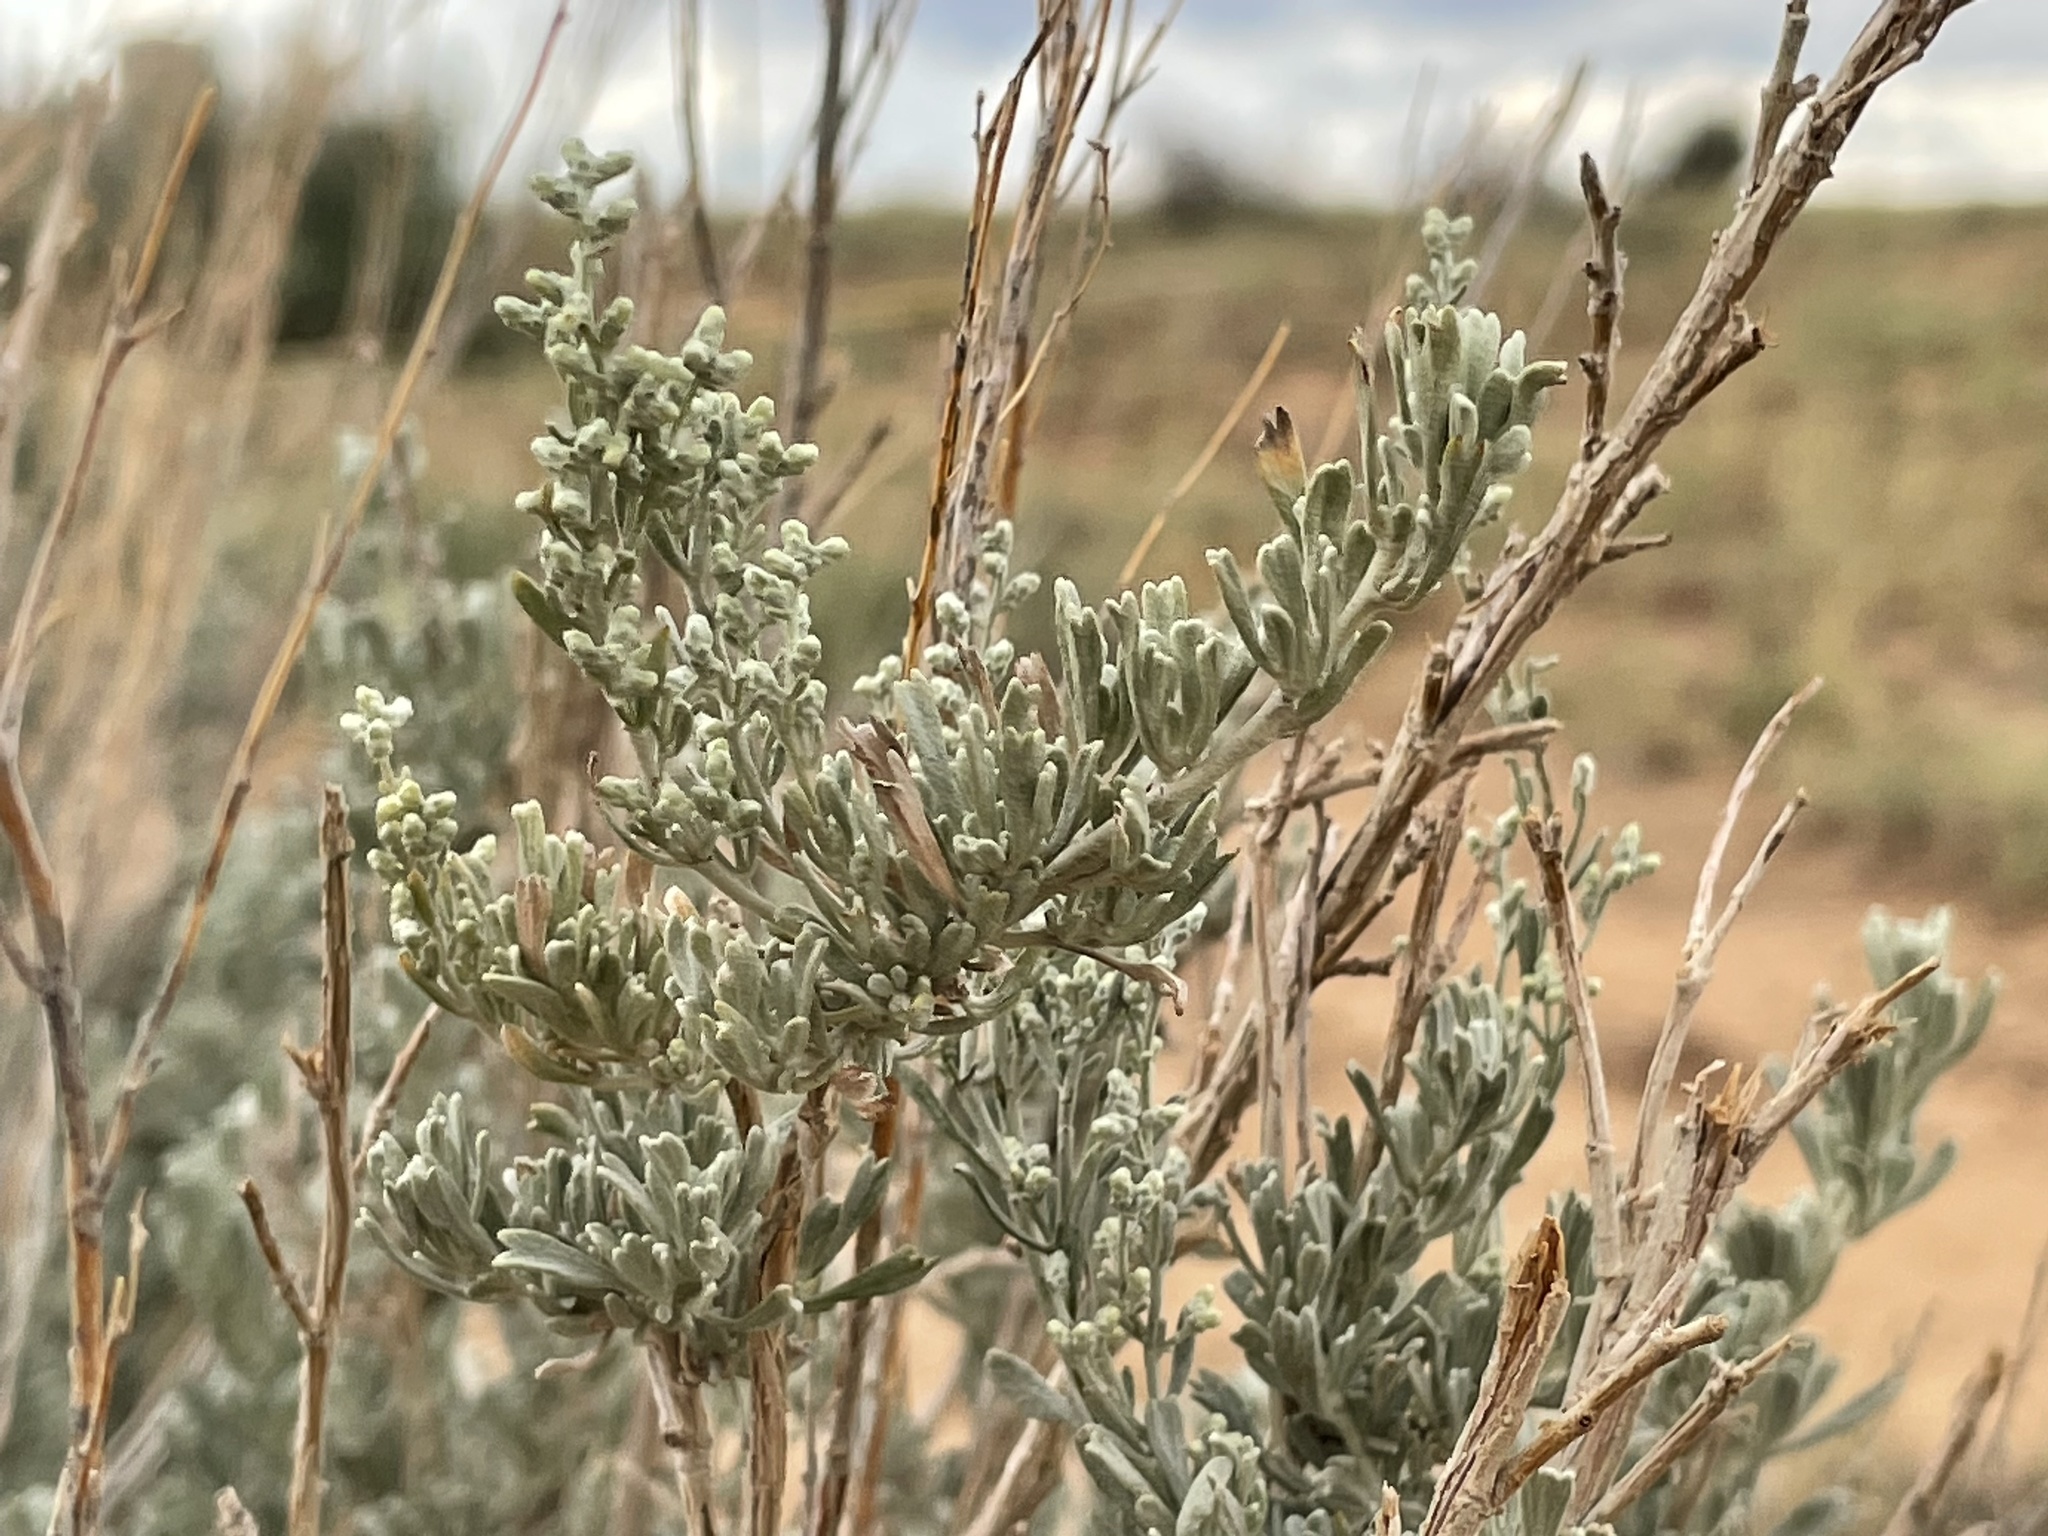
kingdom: Plantae
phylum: Tracheophyta
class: Magnoliopsida
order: Asterales
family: Asteraceae
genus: Artemisia
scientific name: Artemisia tridentata
